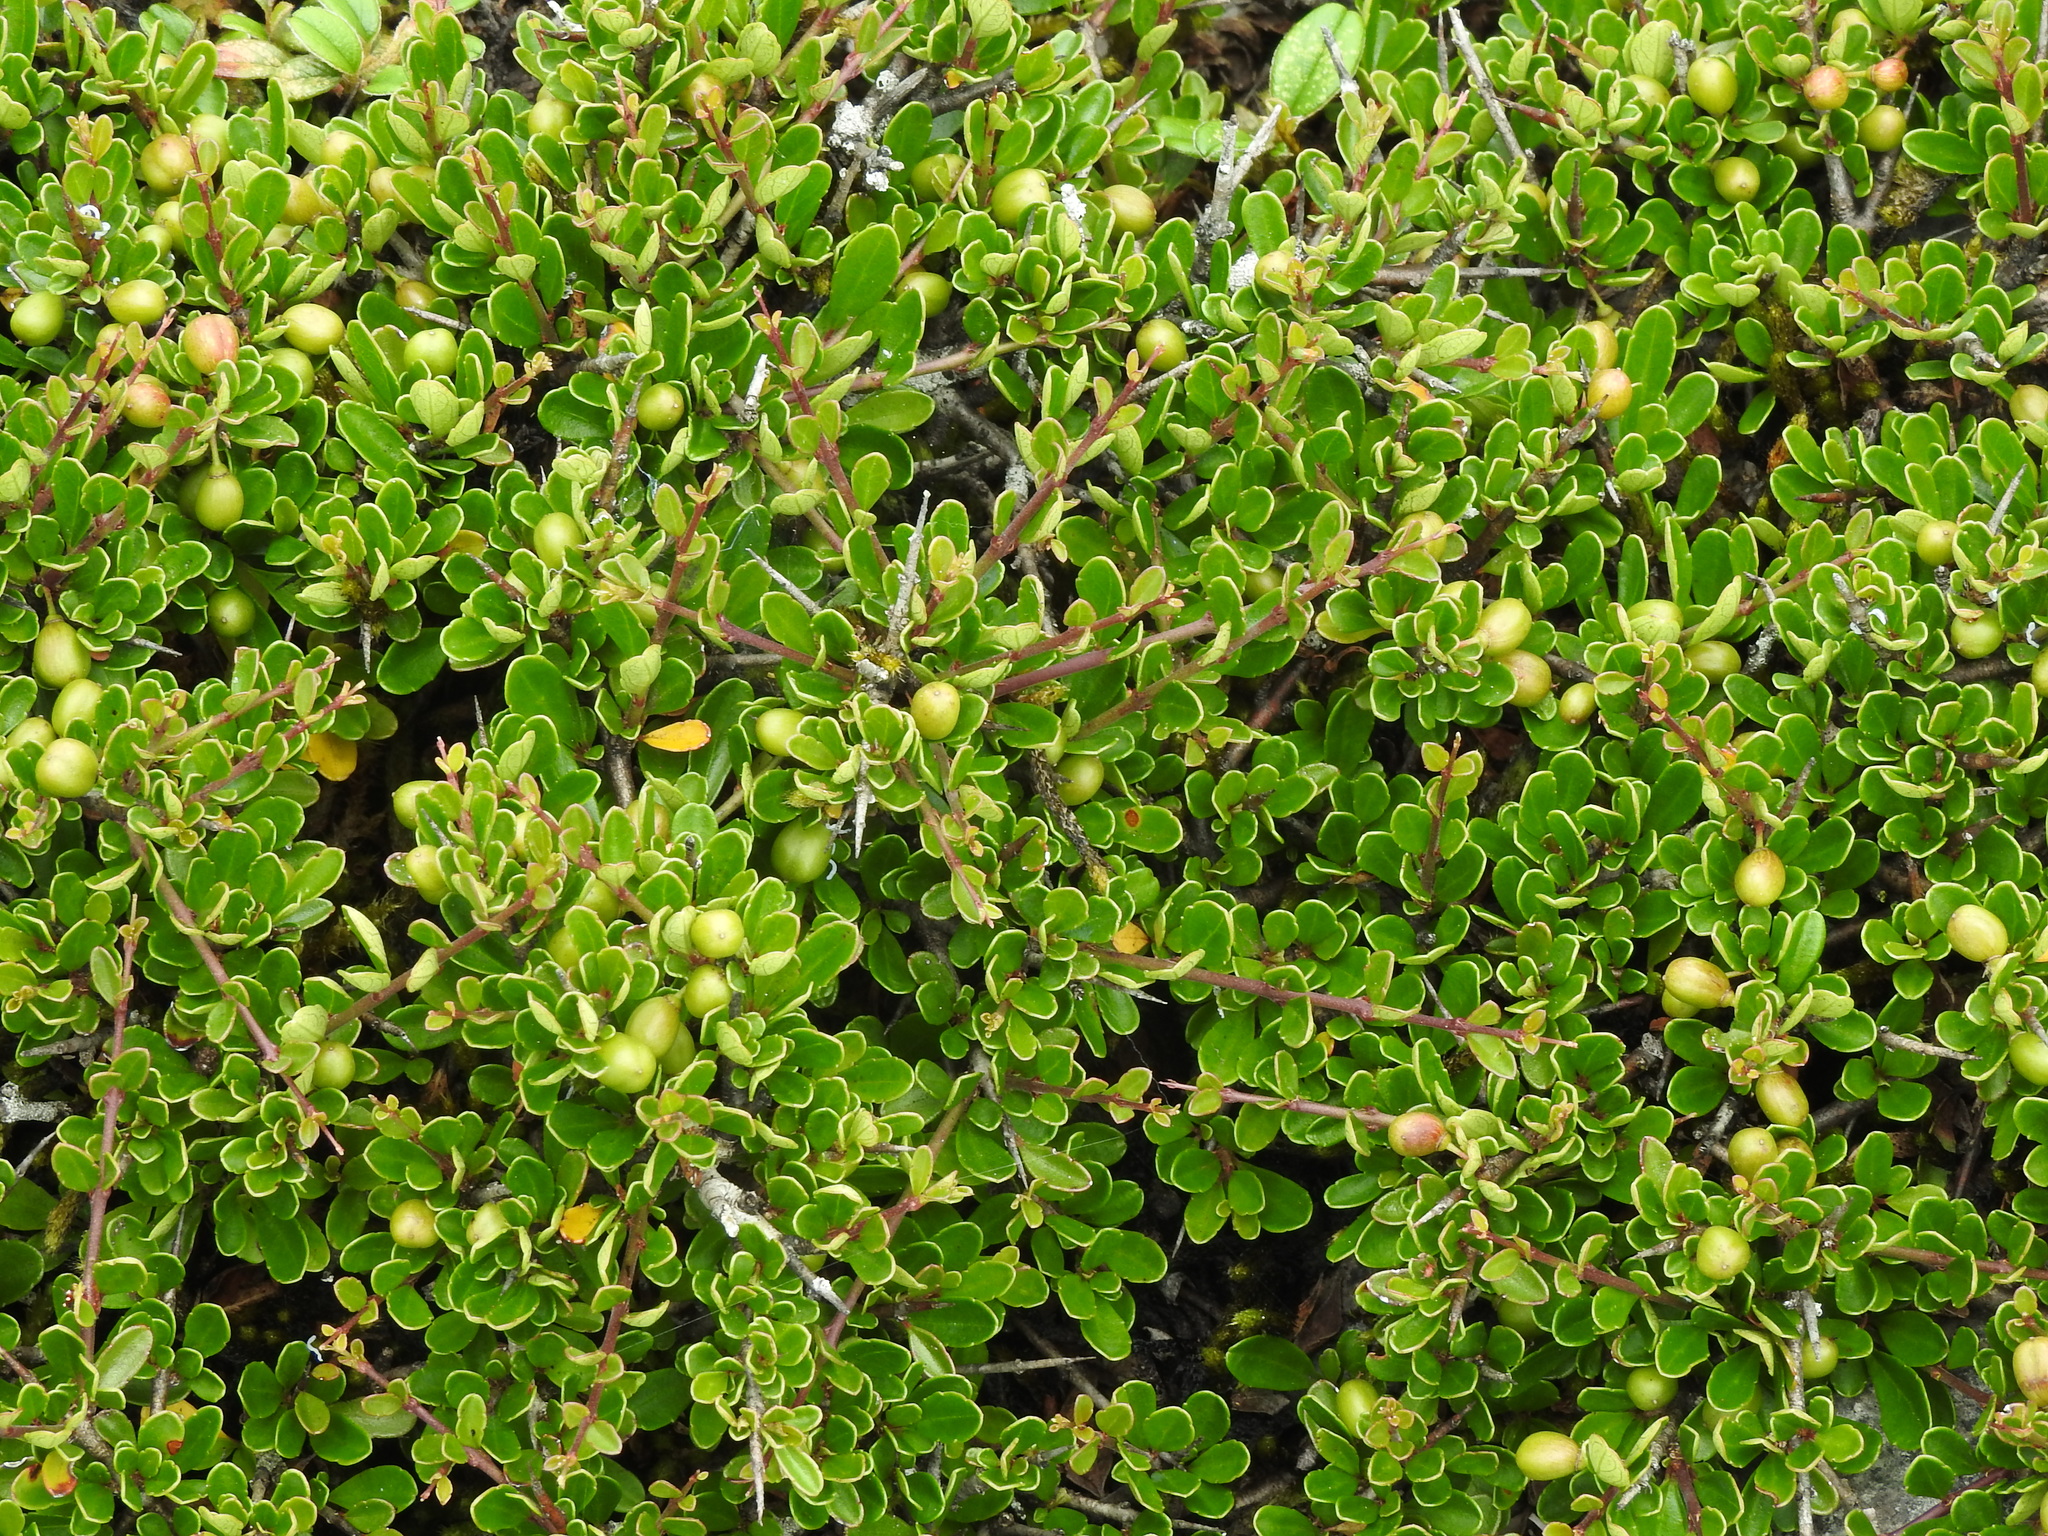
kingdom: Plantae
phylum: Tracheophyta
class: Magnoliopsida
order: Rosales
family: Rhamnaceae
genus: Rhamnus
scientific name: Rhamnus kanagusukii
